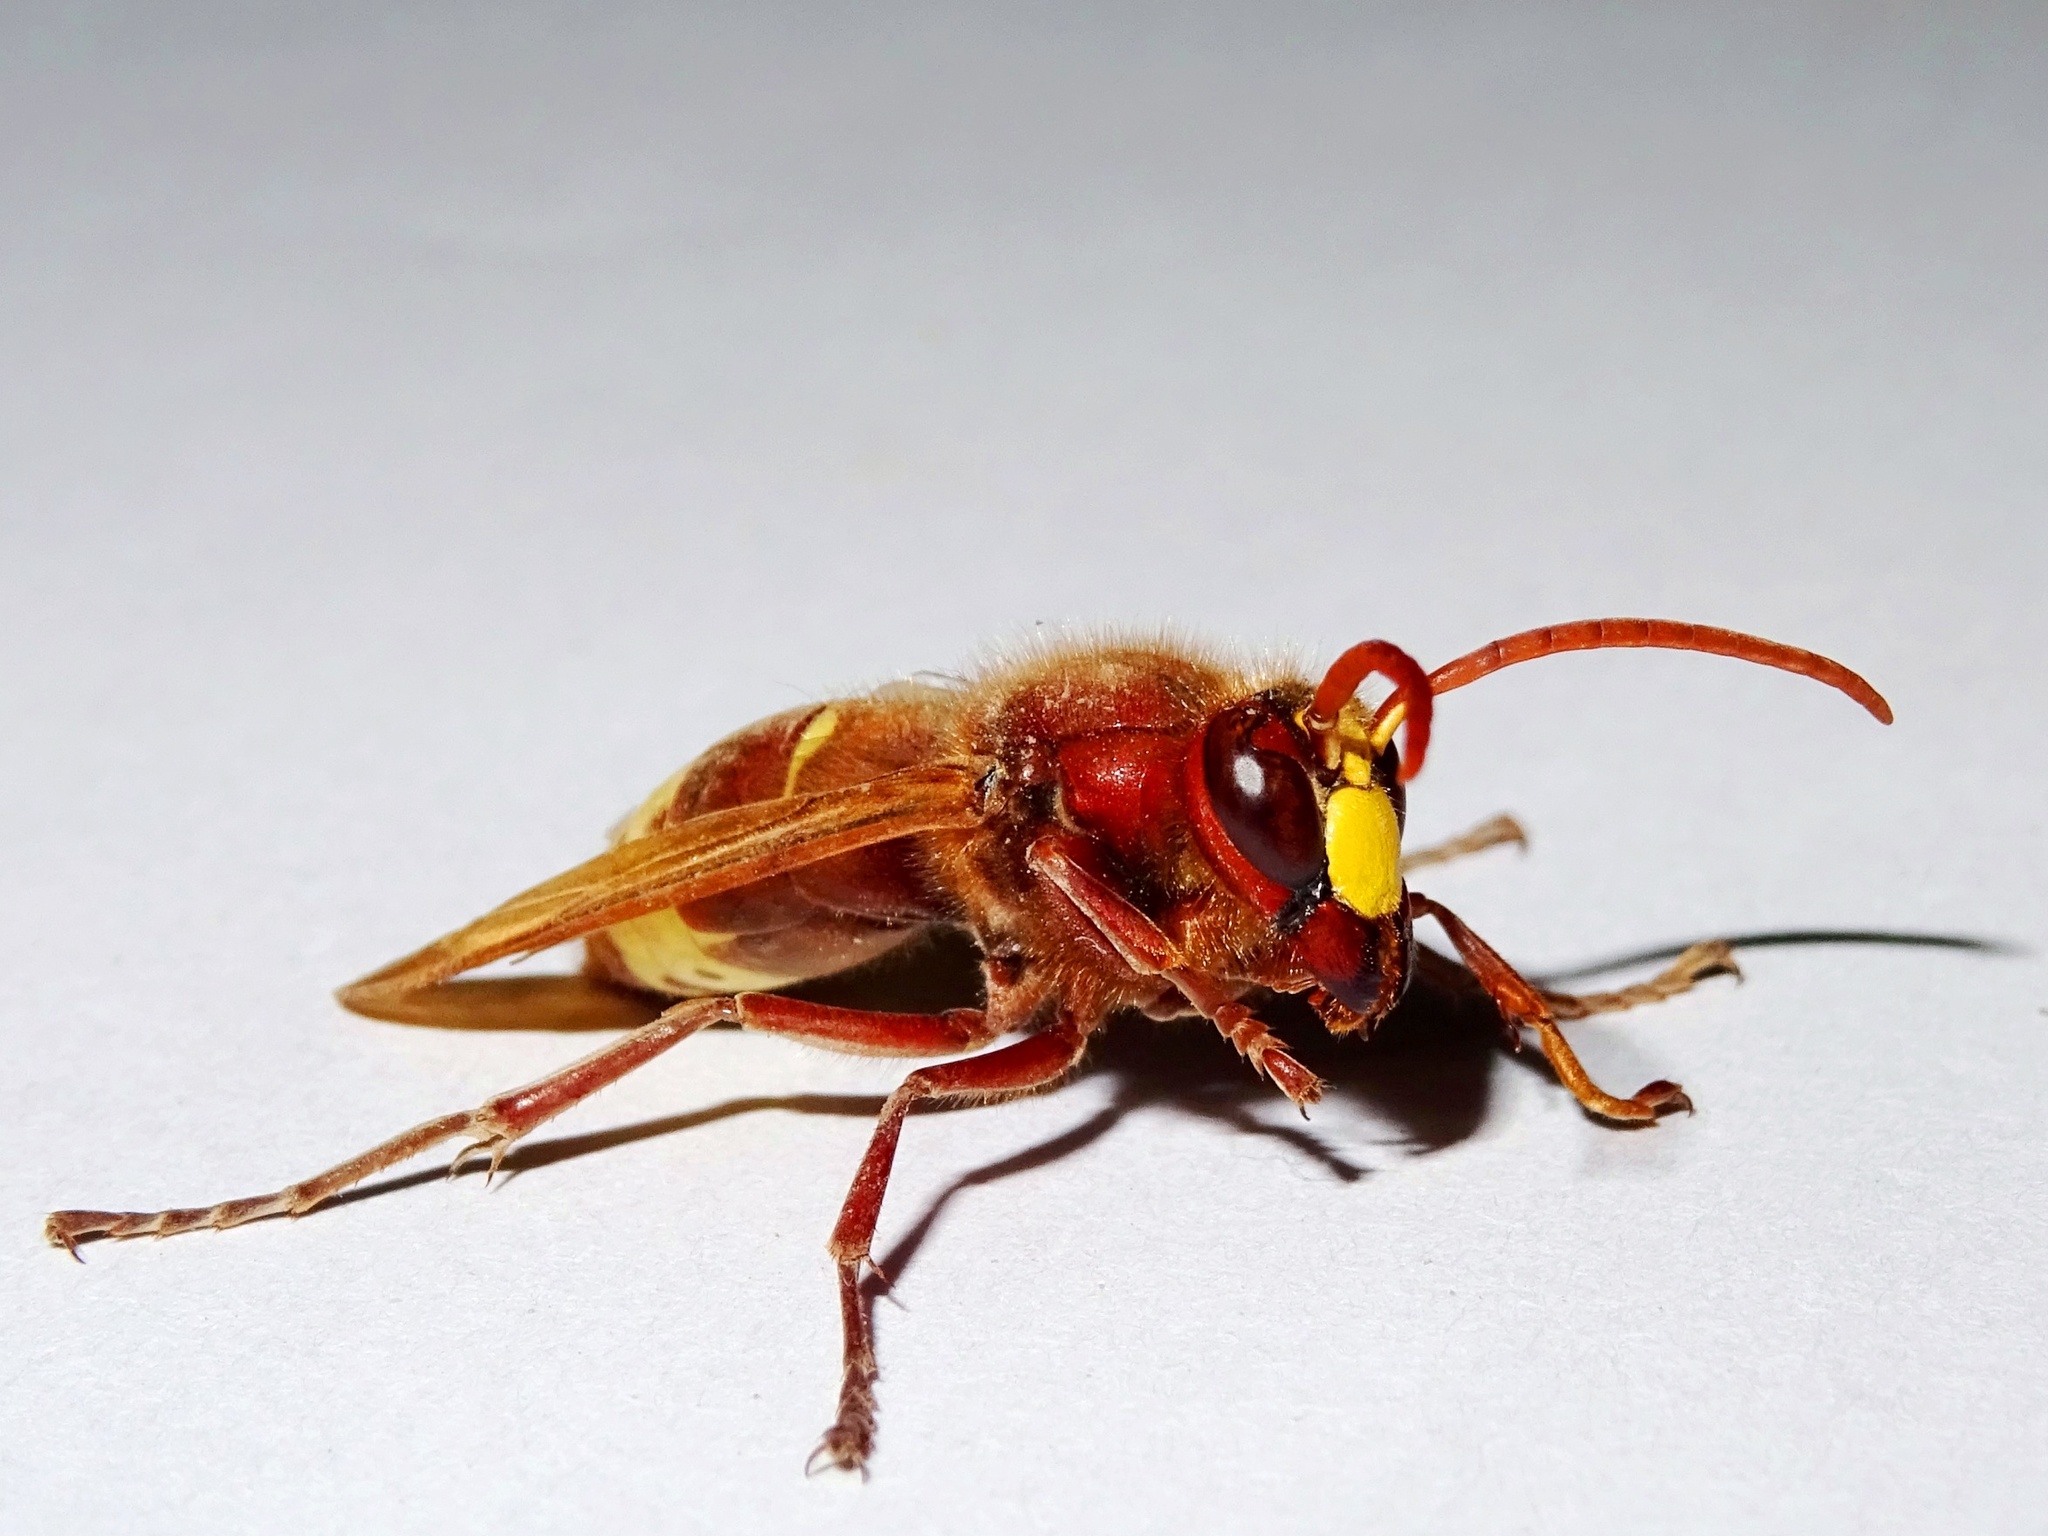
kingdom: Animalia
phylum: Arthropoda
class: Insecta
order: Hymenoptera
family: Vespidae
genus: Vespa
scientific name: Vespa orientalis
